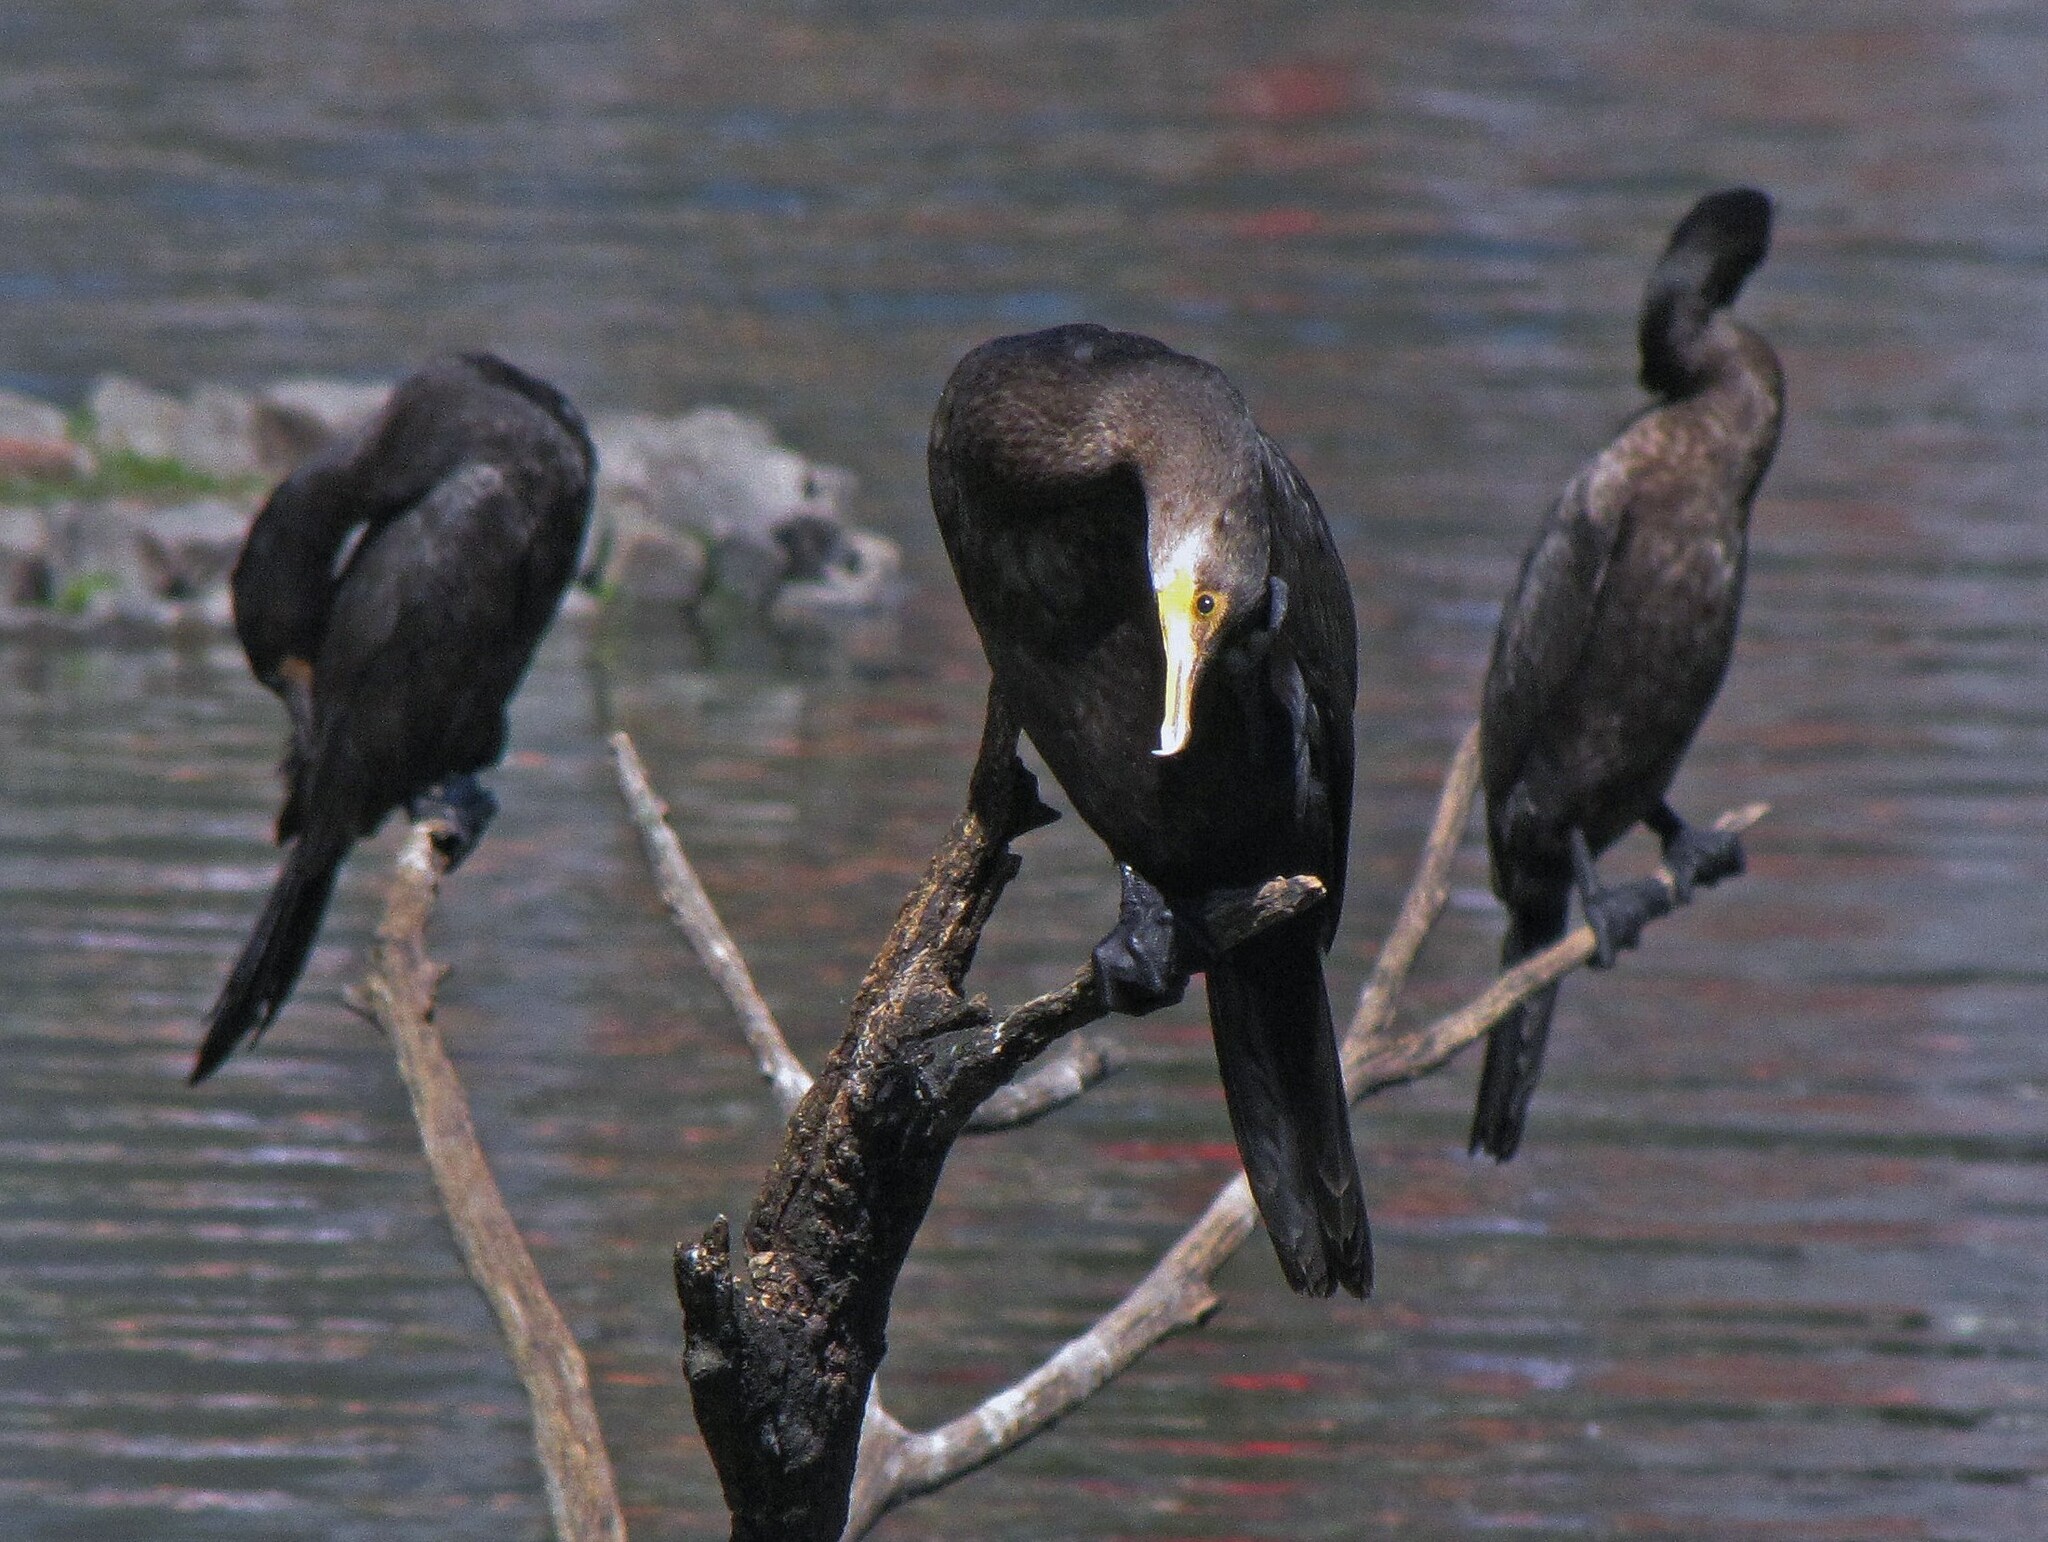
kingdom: Animalia
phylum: Chordata
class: Aves
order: Suliformes
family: Phalacrocoracidae
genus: Phalacrocorax
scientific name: Phalacrocorax brasilianus
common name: Neotropic cormorant
